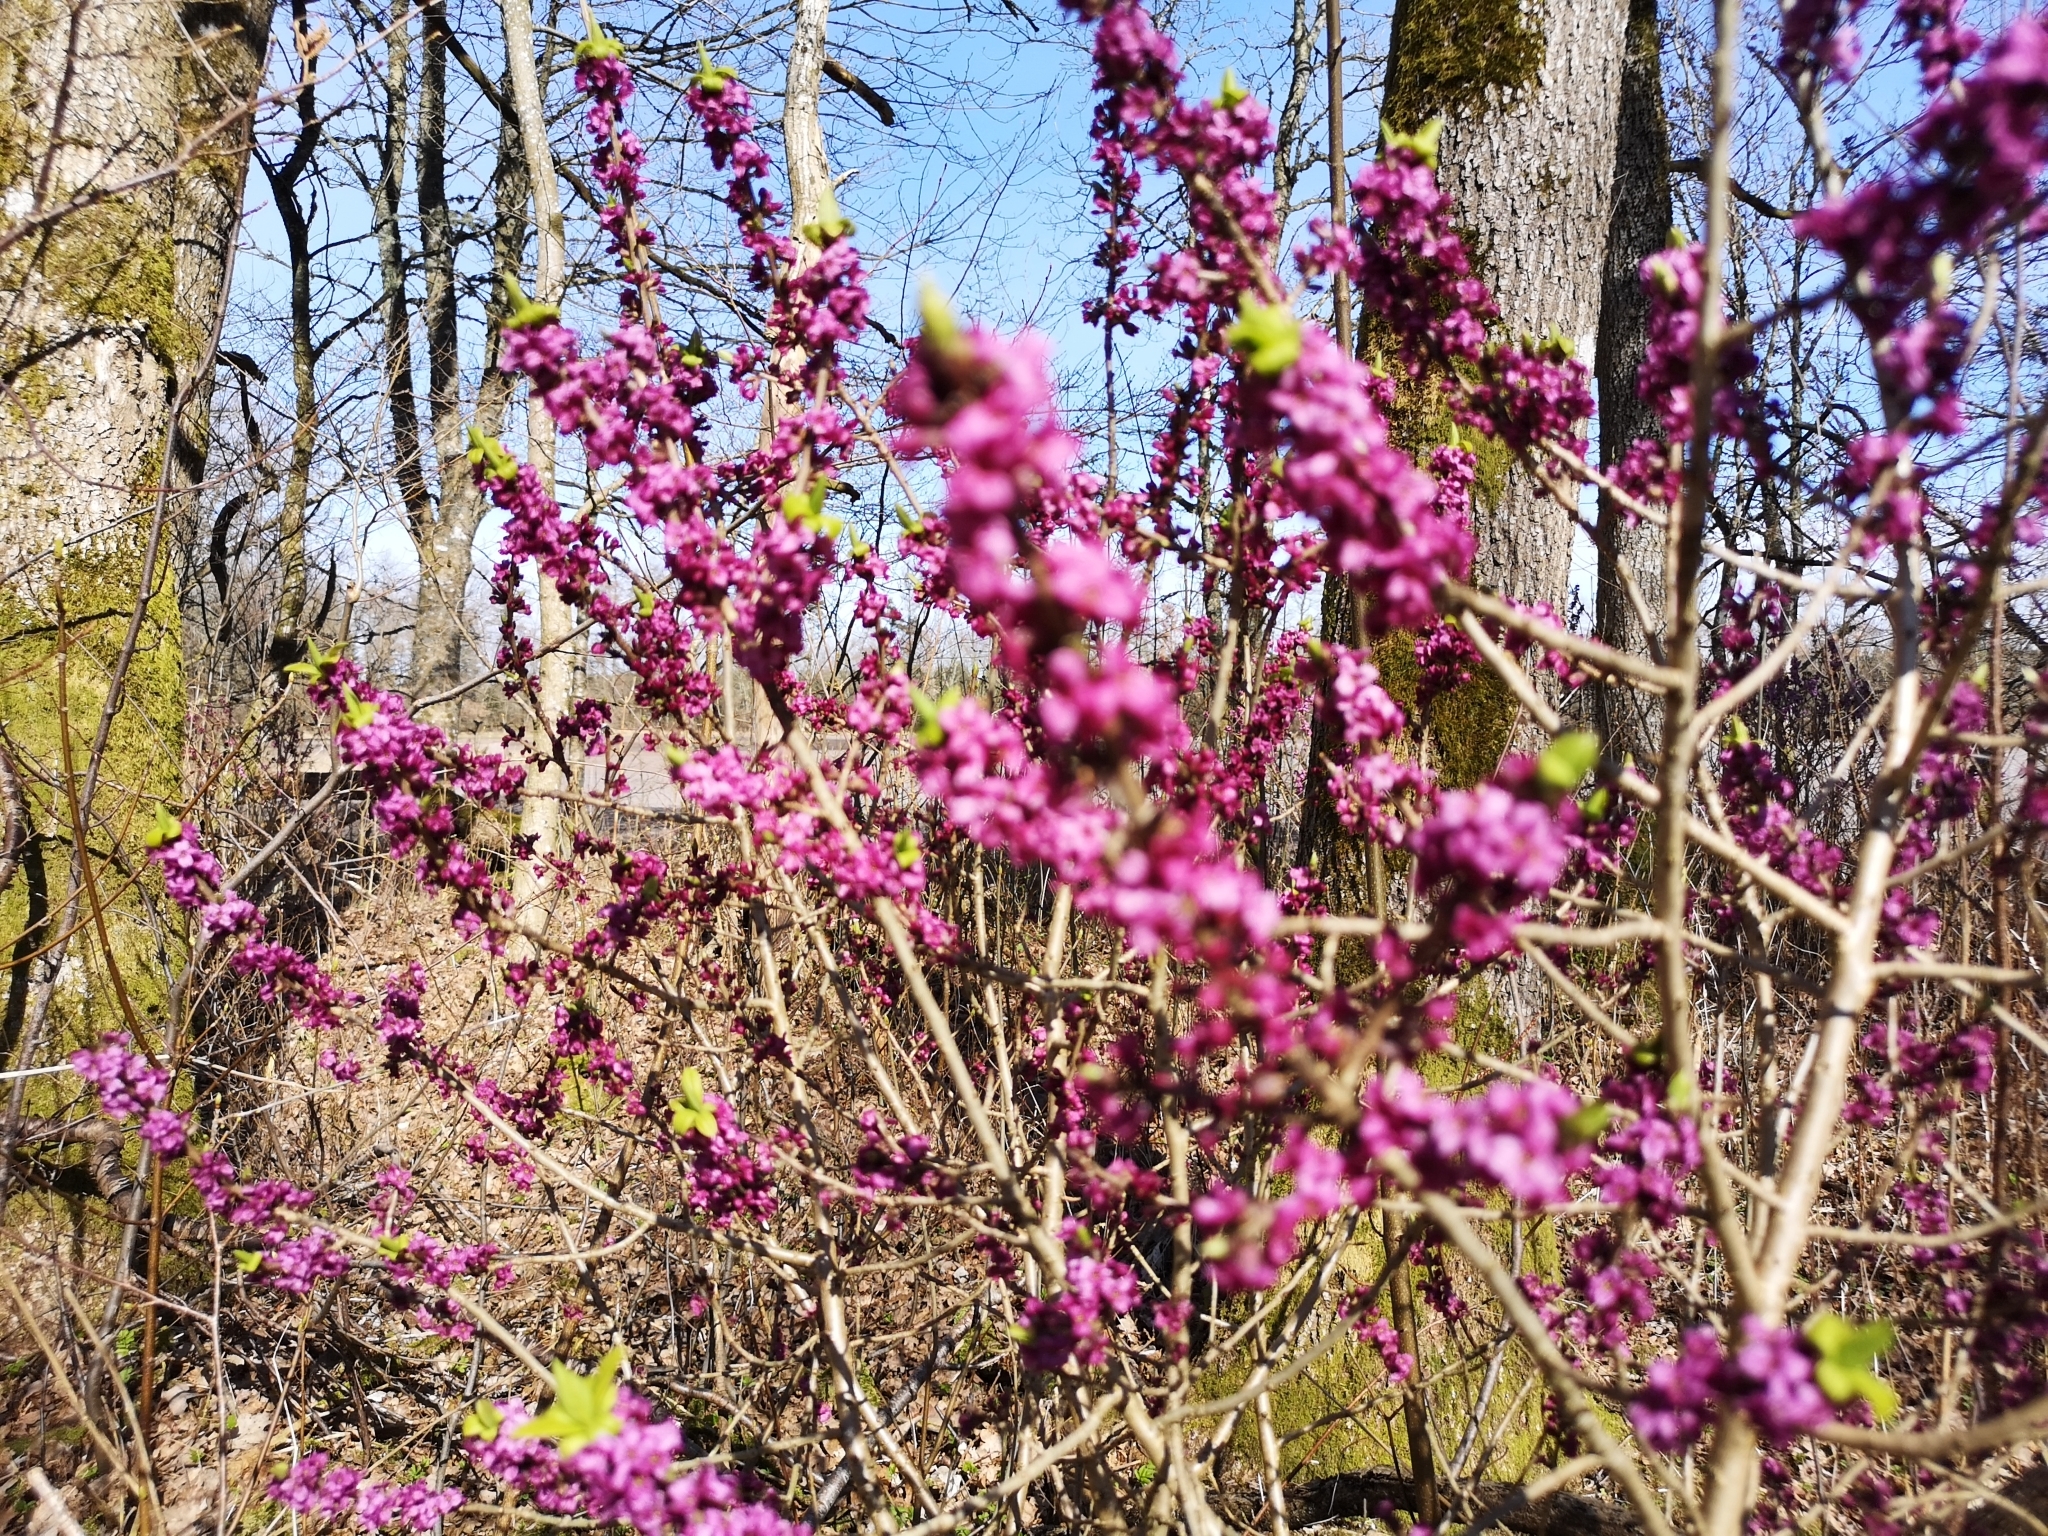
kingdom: Plantae
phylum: Tracheophyta
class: Magnoliopsida
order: Malvales
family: Thymelaeaceae
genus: Daphne
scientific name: Daphne mezereum
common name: Mezereon
